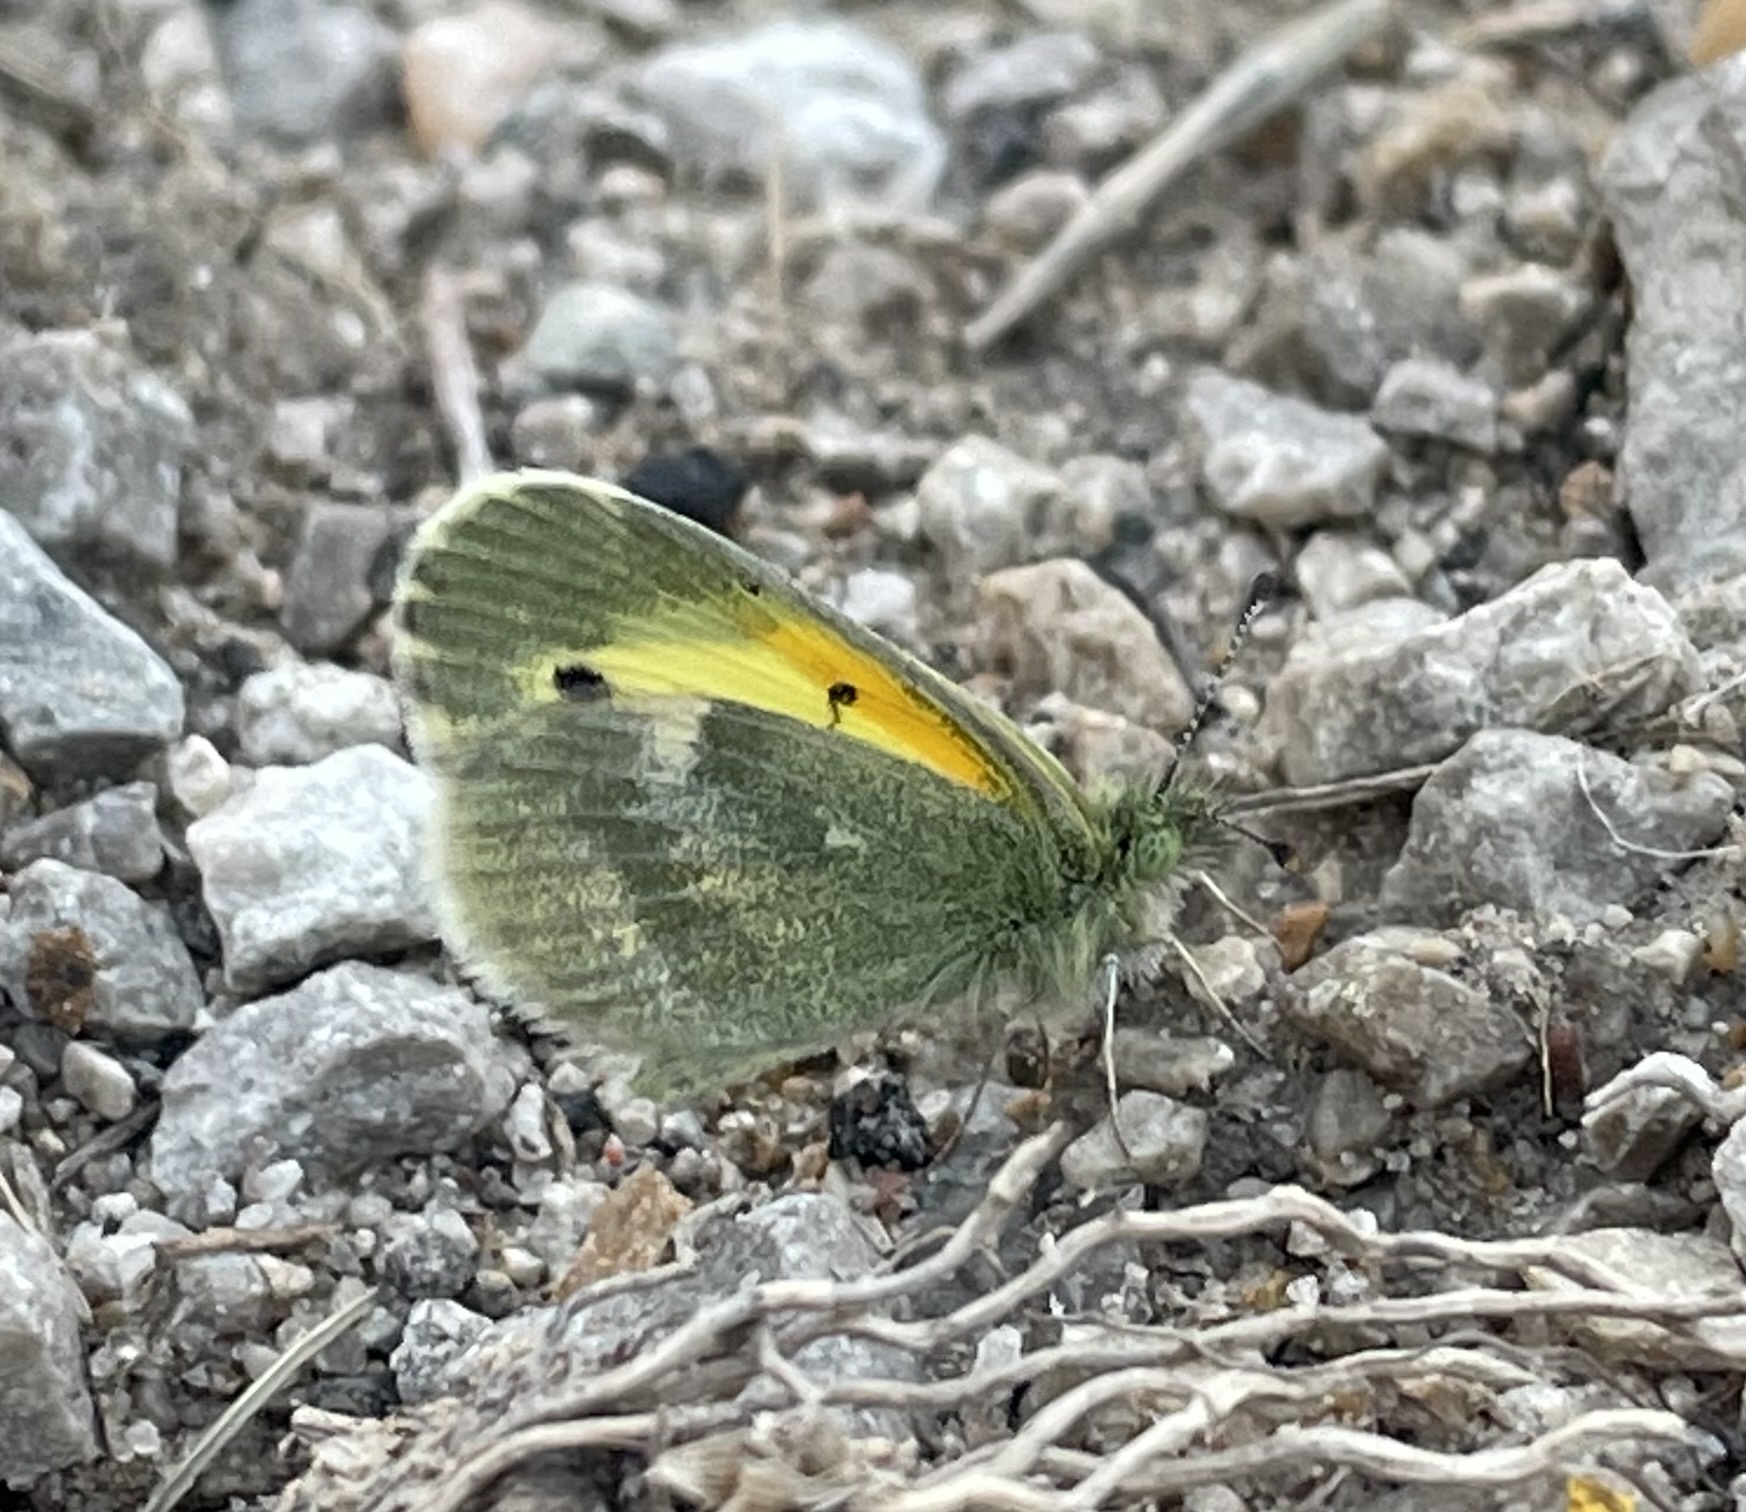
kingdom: Animalia
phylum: Arthropoda
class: Insecta
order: Lepidoptera
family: Pieridae
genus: Nathalis
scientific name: Nathalis iole
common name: Dainty sulphur
